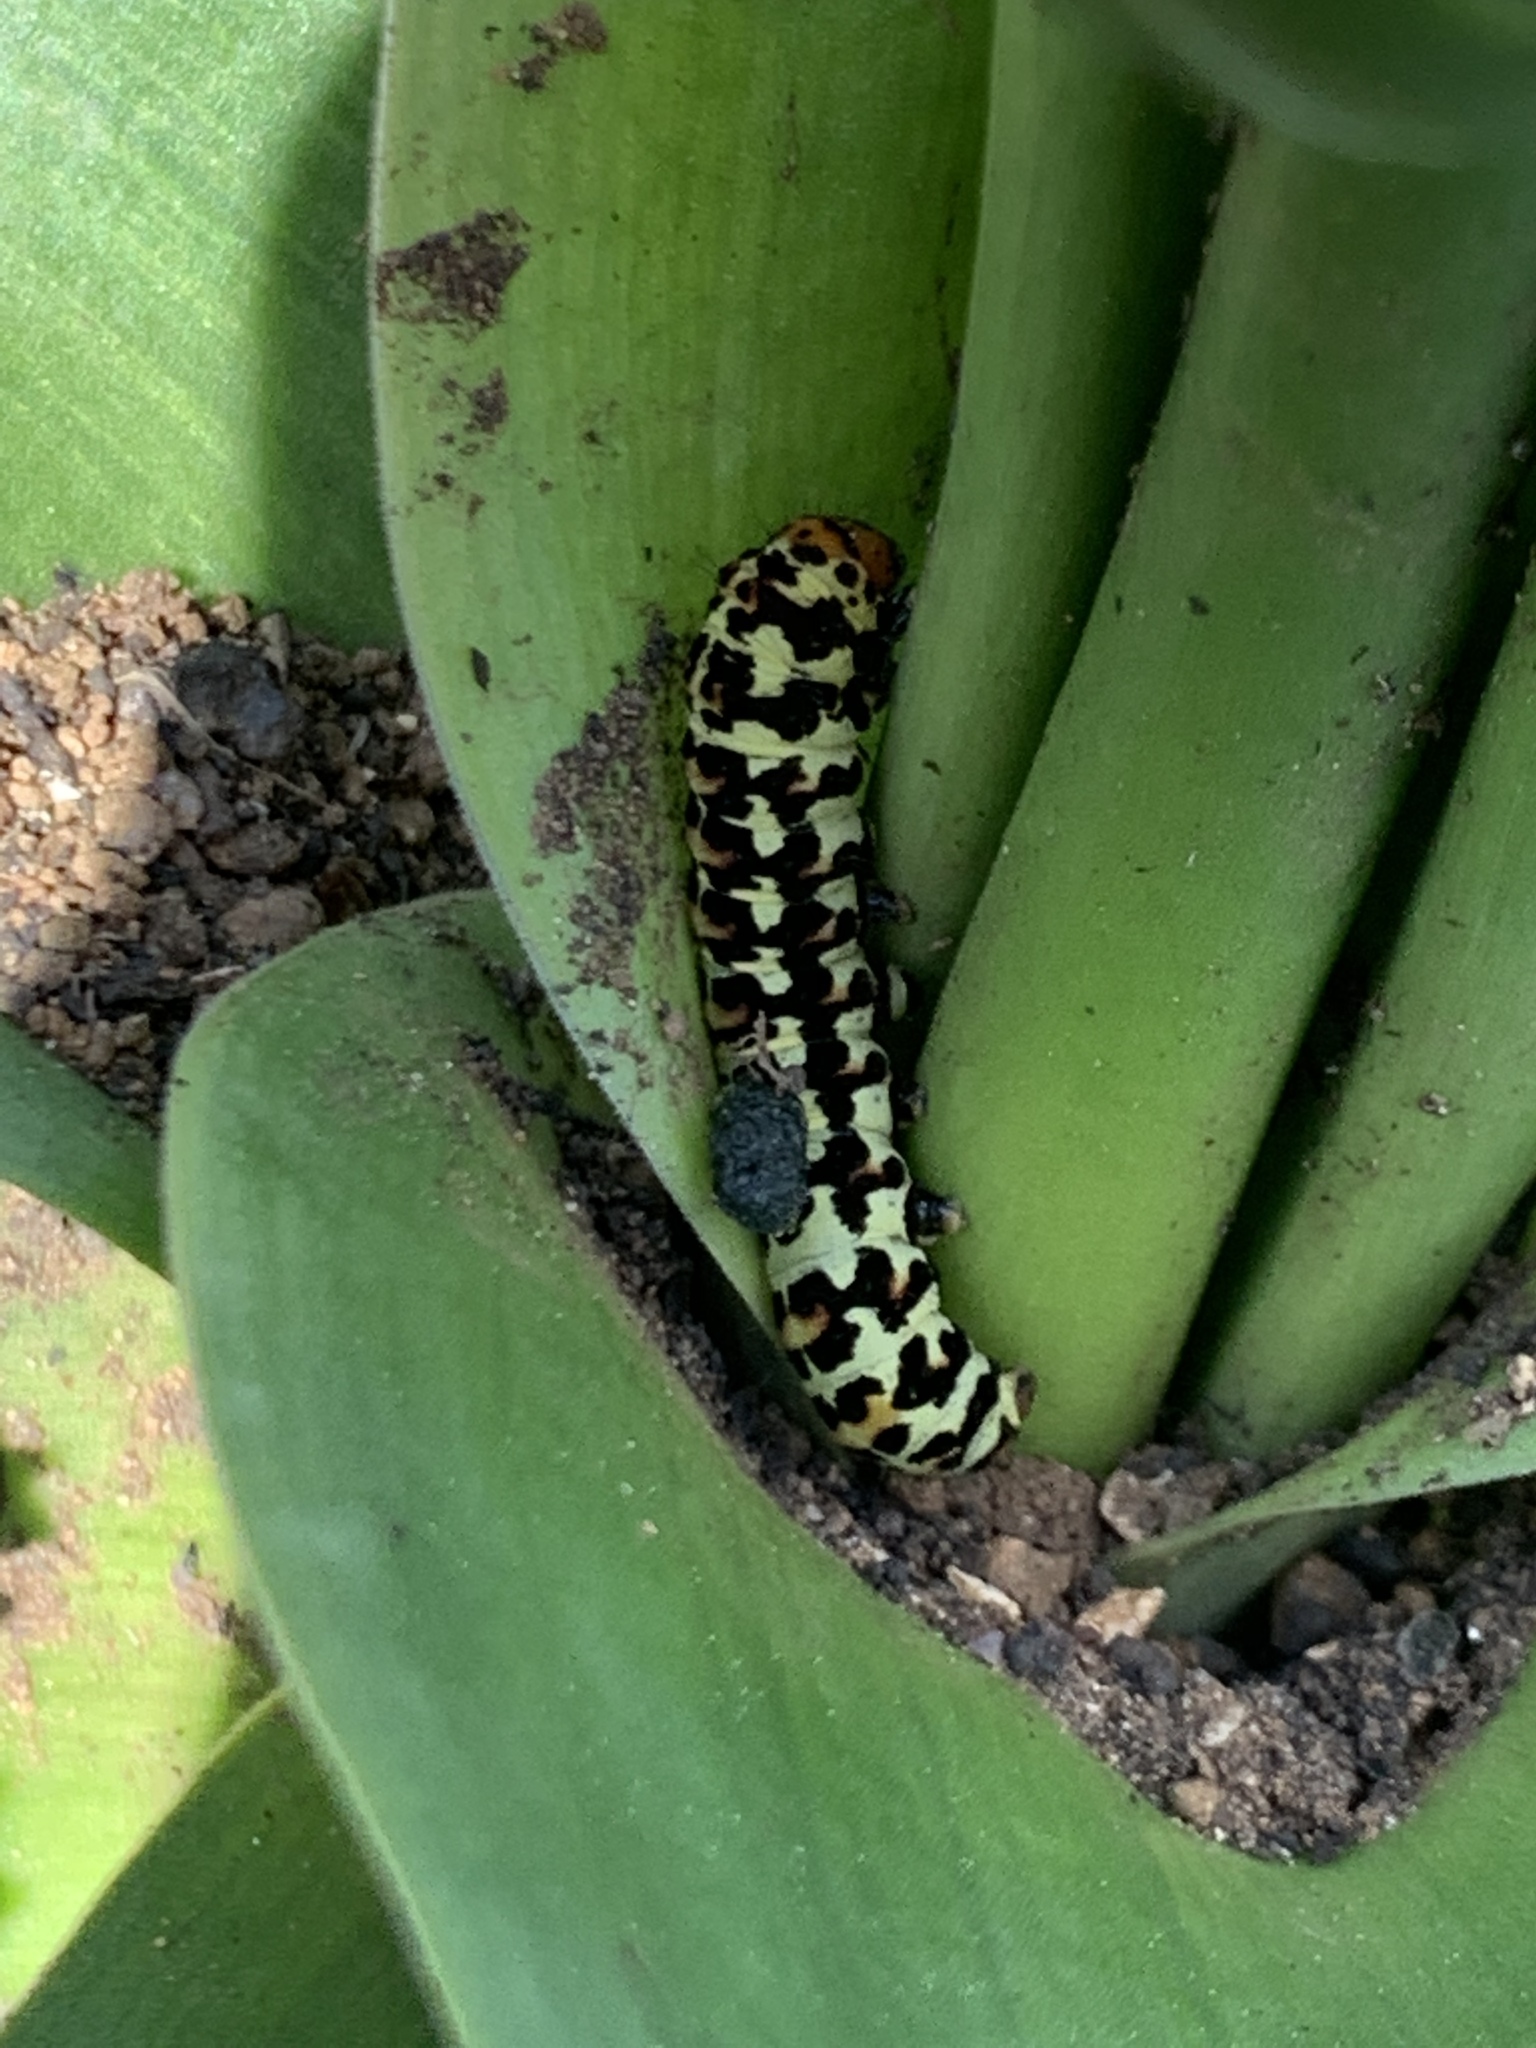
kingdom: Animalia
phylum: Arthropoda
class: Insecta
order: Lepidoptera
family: Noctuidae
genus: Diaphone
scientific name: Diaphone eumela
